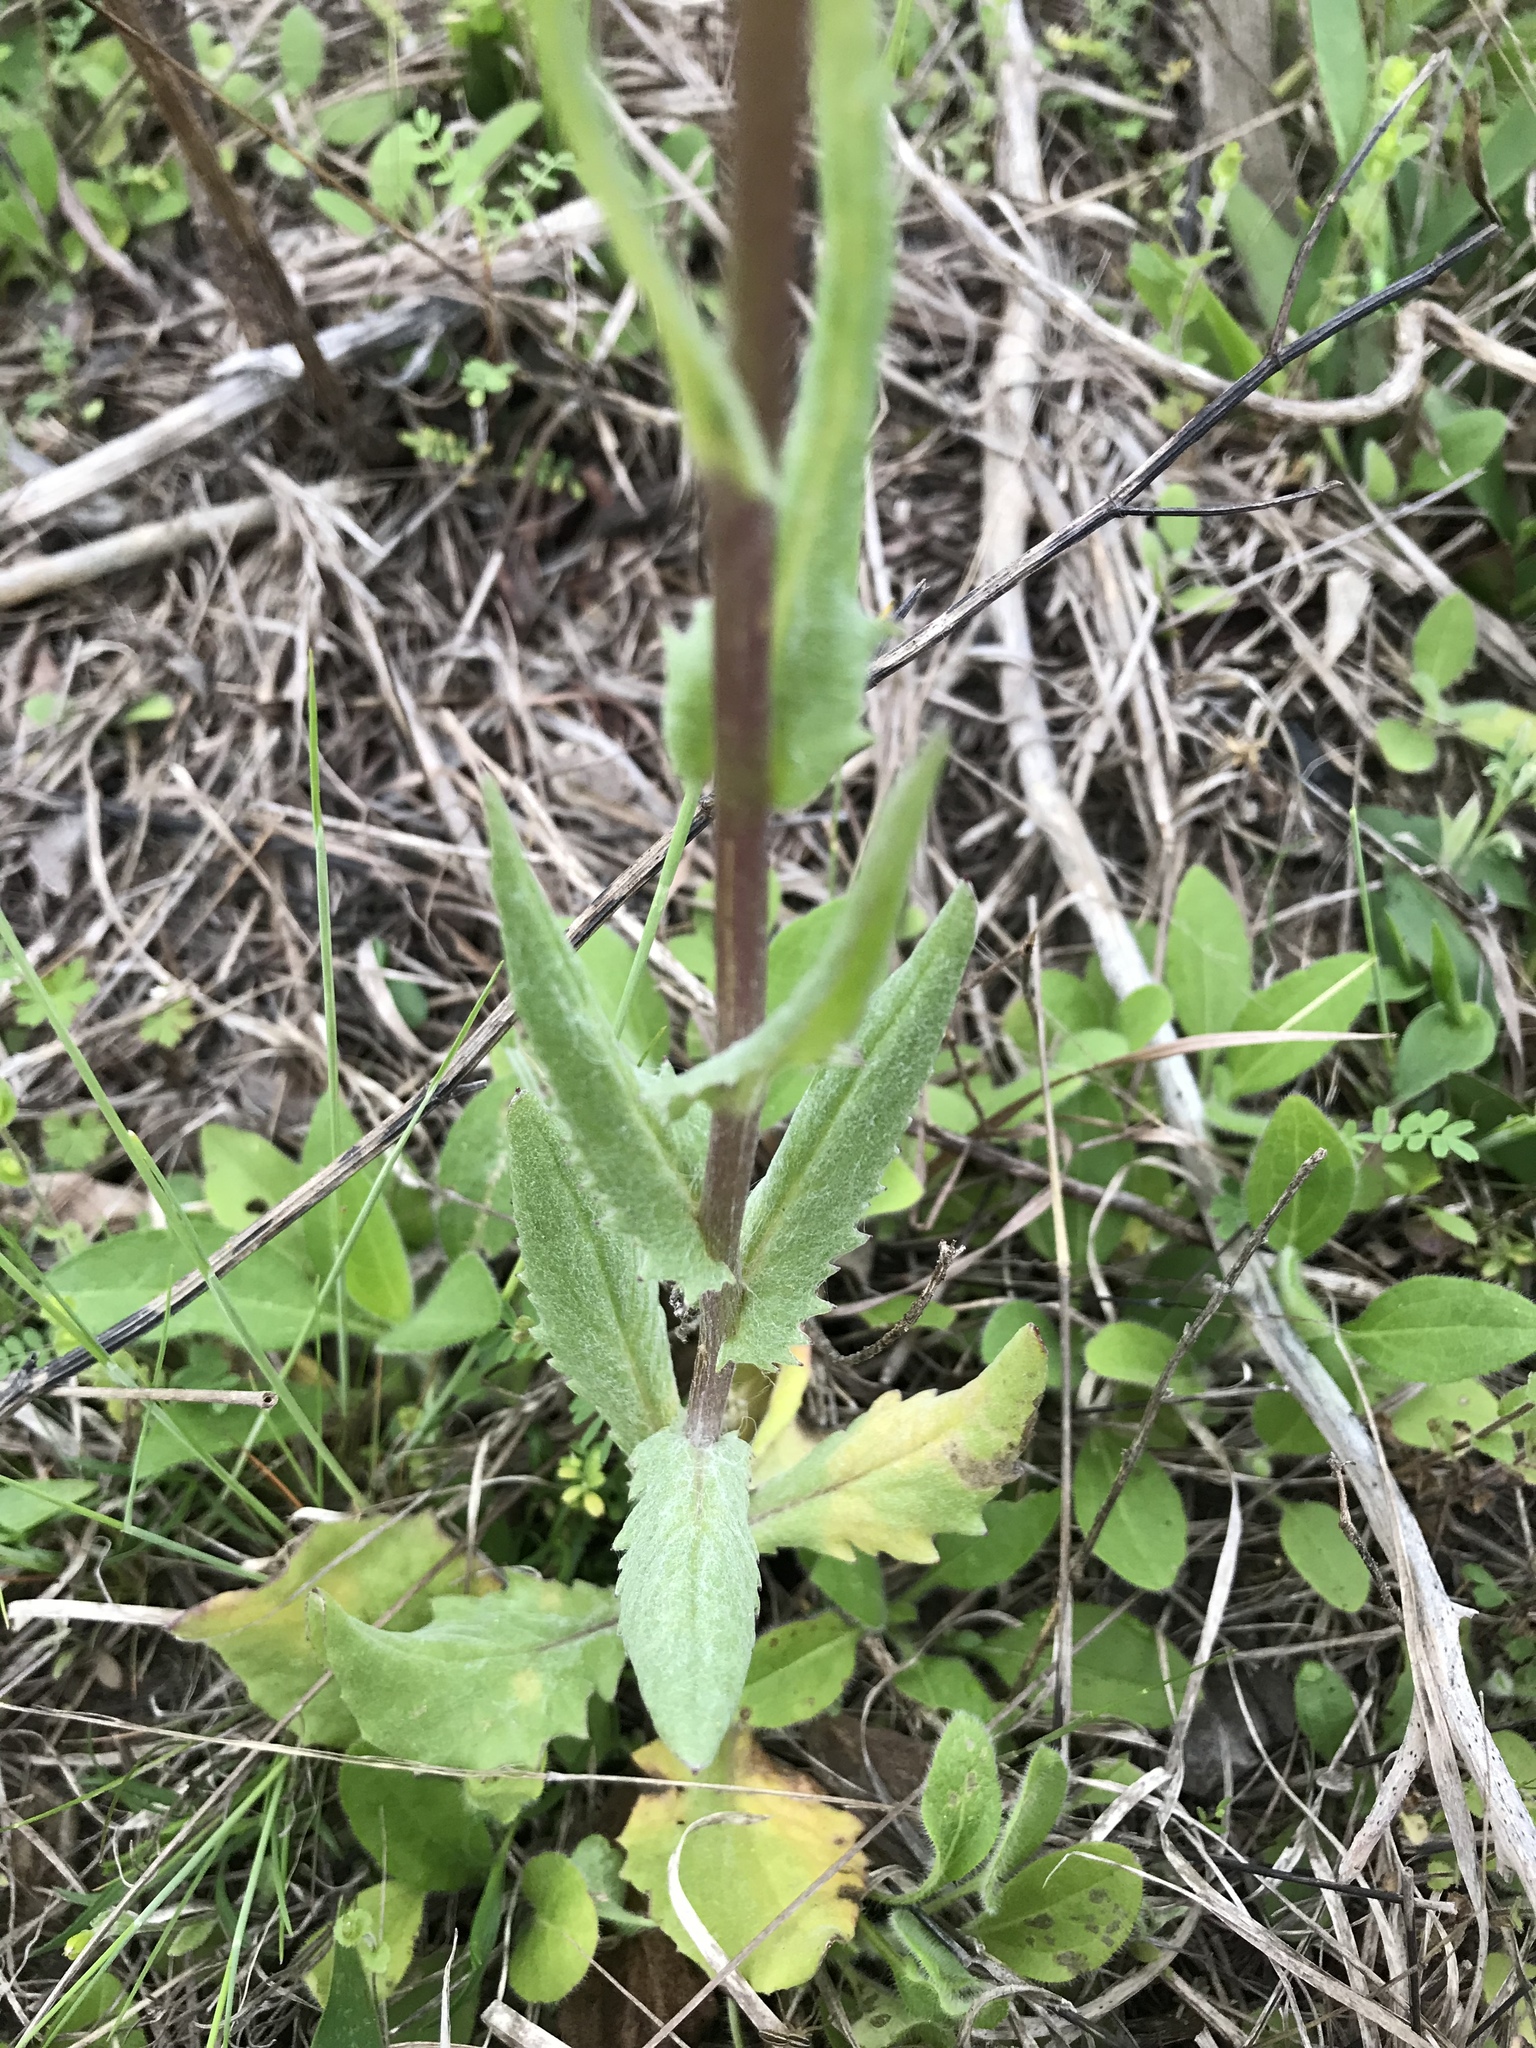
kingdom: Plantae
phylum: Tracheophyta
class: Magnoliopsida
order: Asterales
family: Asteraceae
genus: Senecio
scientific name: Senecio ampullaceus
